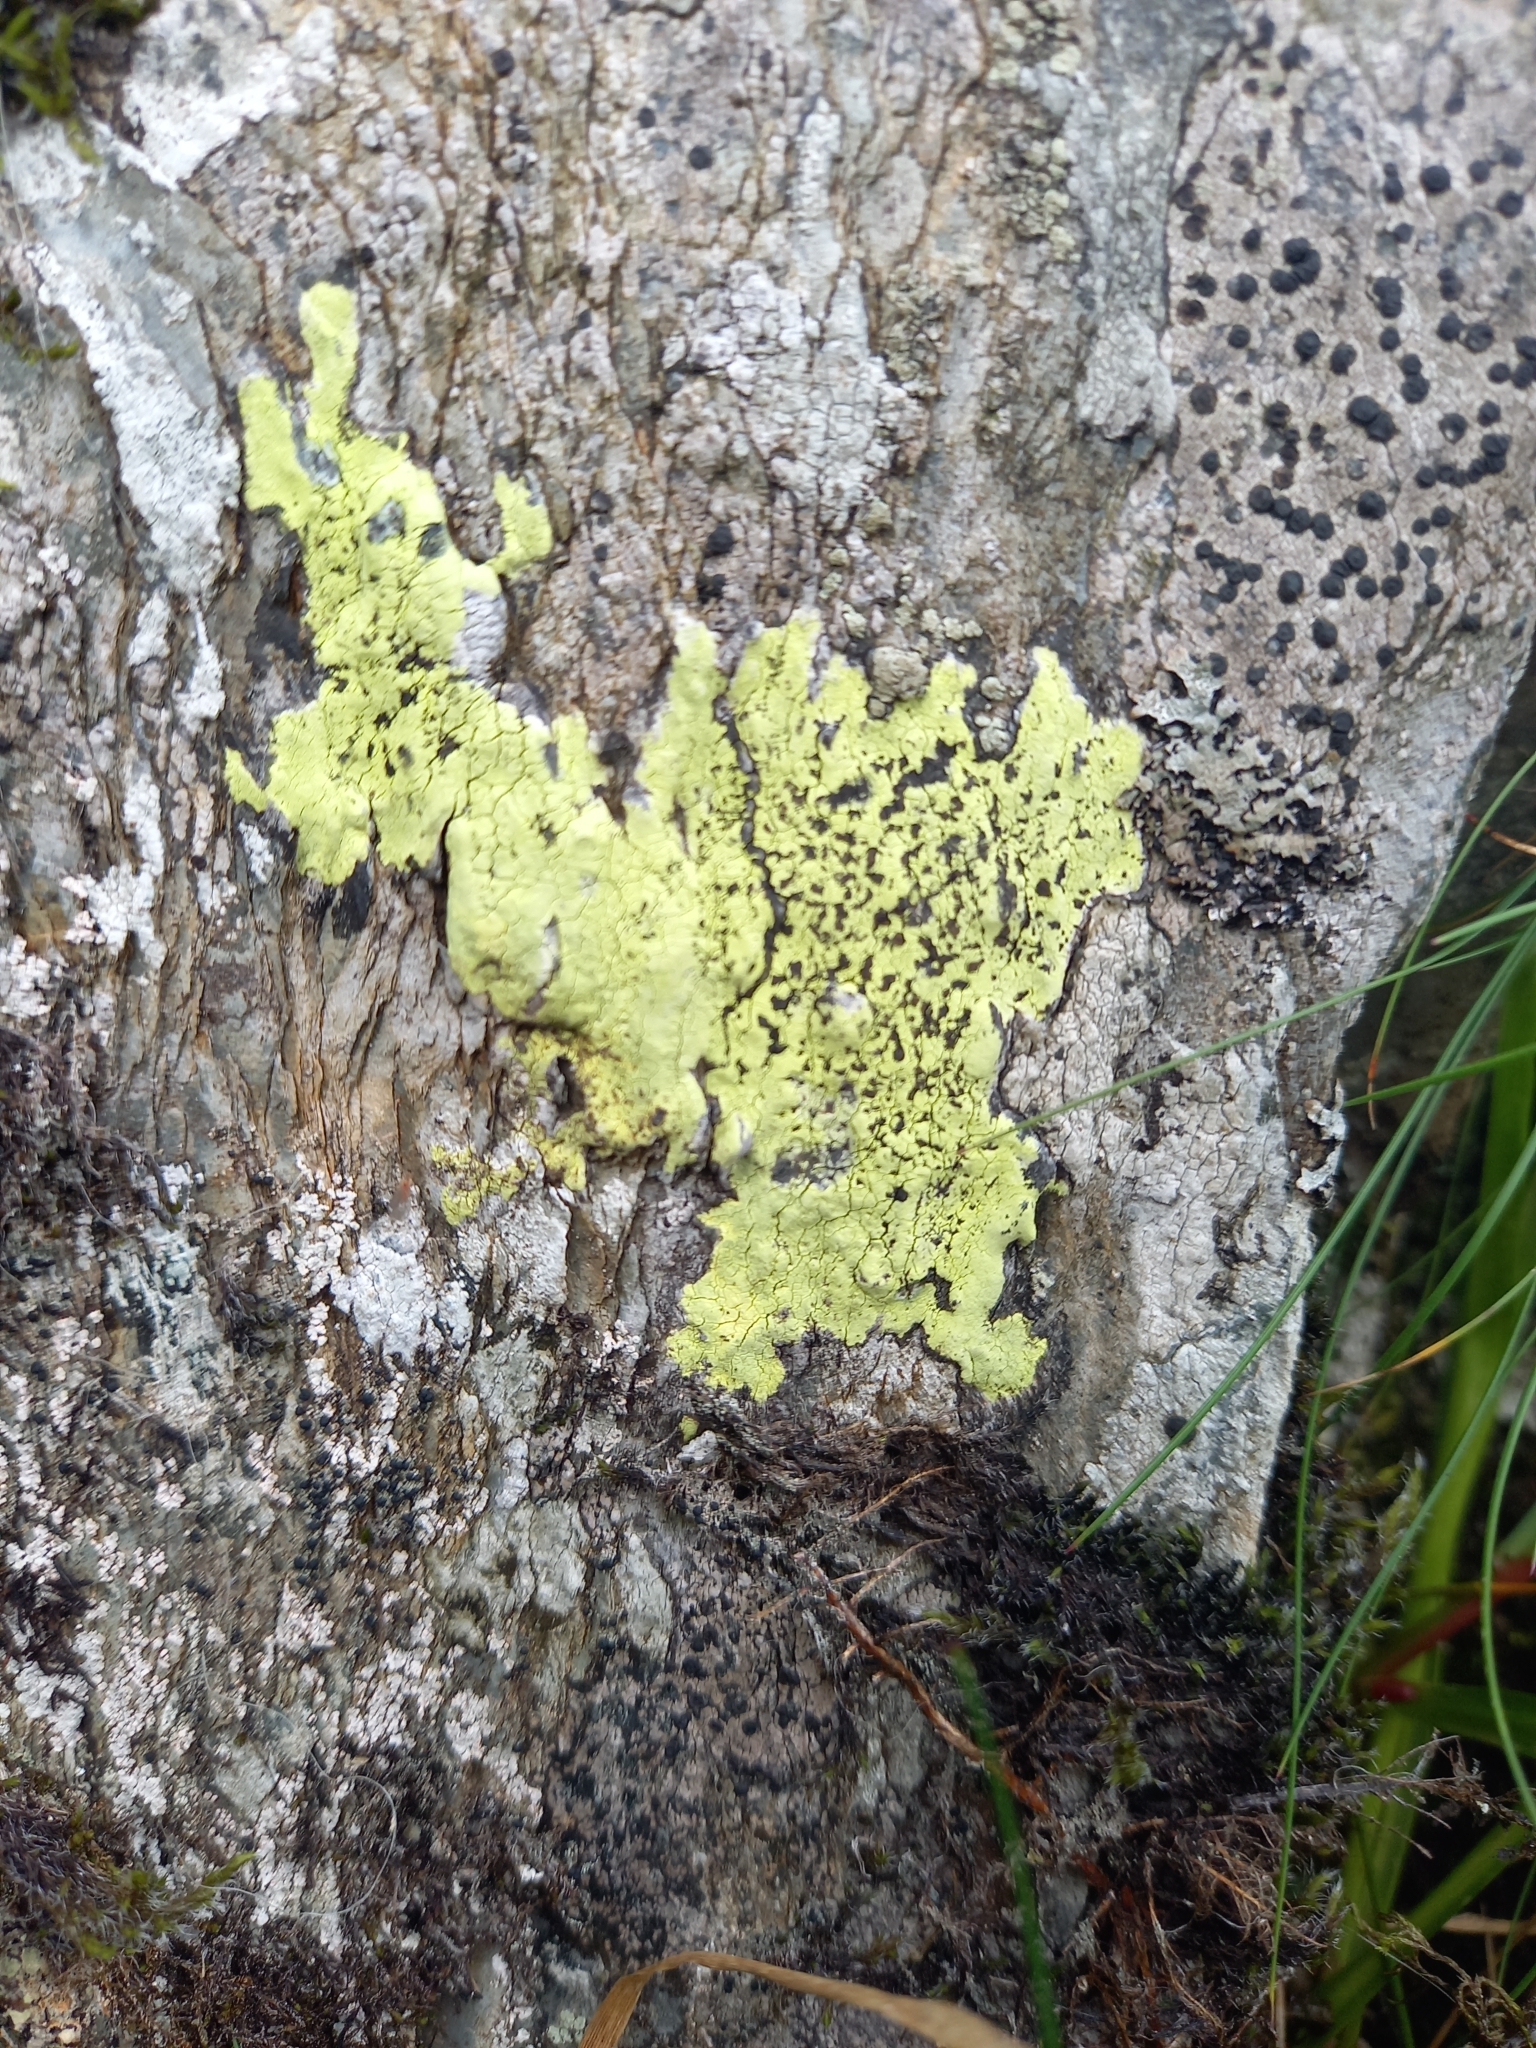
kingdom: Fungi
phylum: Ascomycota
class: Lecanoromycetes
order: Rhizocarpales
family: Rhizocarpaceae
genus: Rhizocarpon
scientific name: Rhizocarpon geographicum
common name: Yellow map lichen
